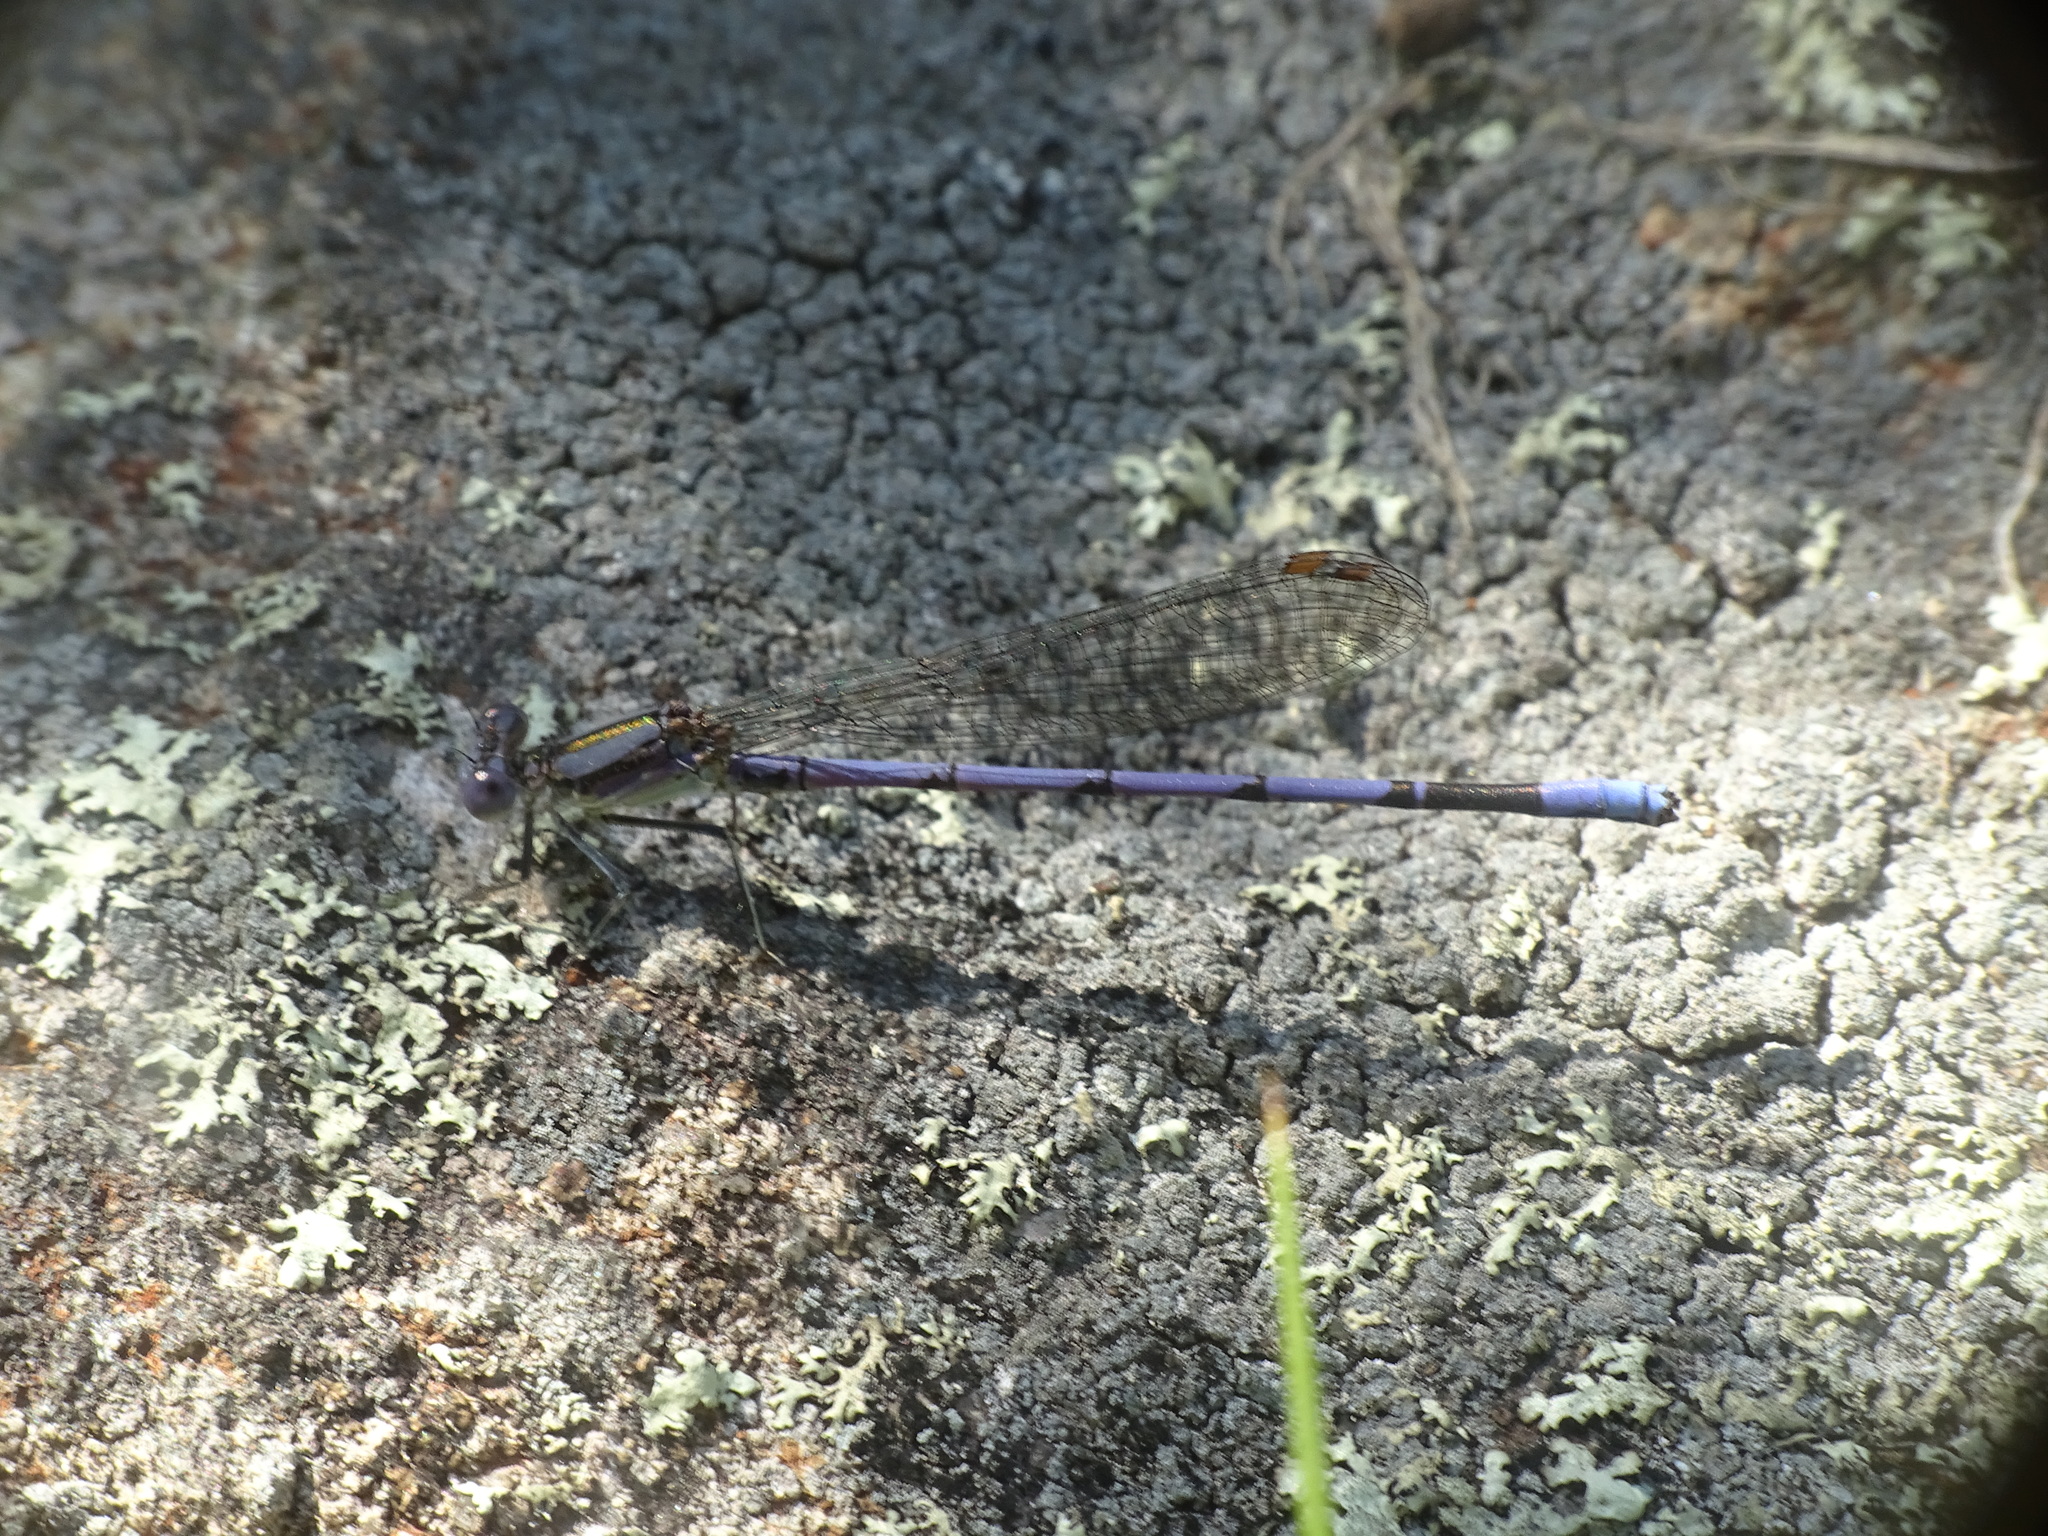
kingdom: Animalia
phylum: Arthropoda
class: Insecta
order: Odonata
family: Coenagrionidae
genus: Argia
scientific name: Argia fumipennis
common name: Variable dancer
